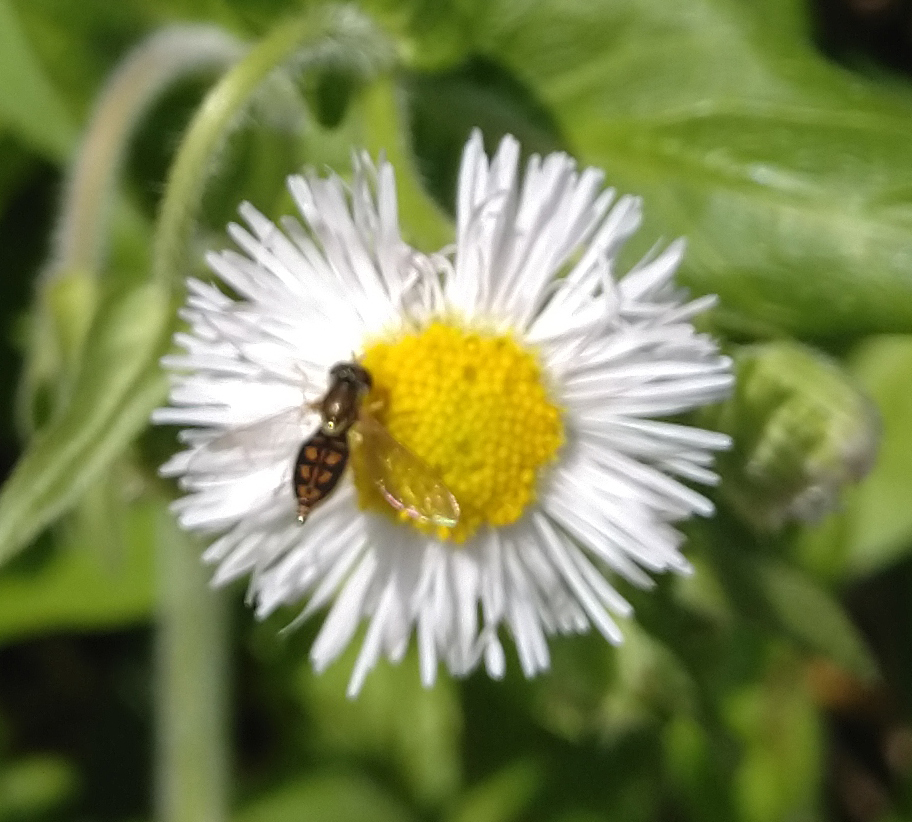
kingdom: Animalia
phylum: Arthropoda
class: Insecta
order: Diptera
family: Syrphidae
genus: Toxomerus
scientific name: Toxomerus marginatus
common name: Syrphid fly
